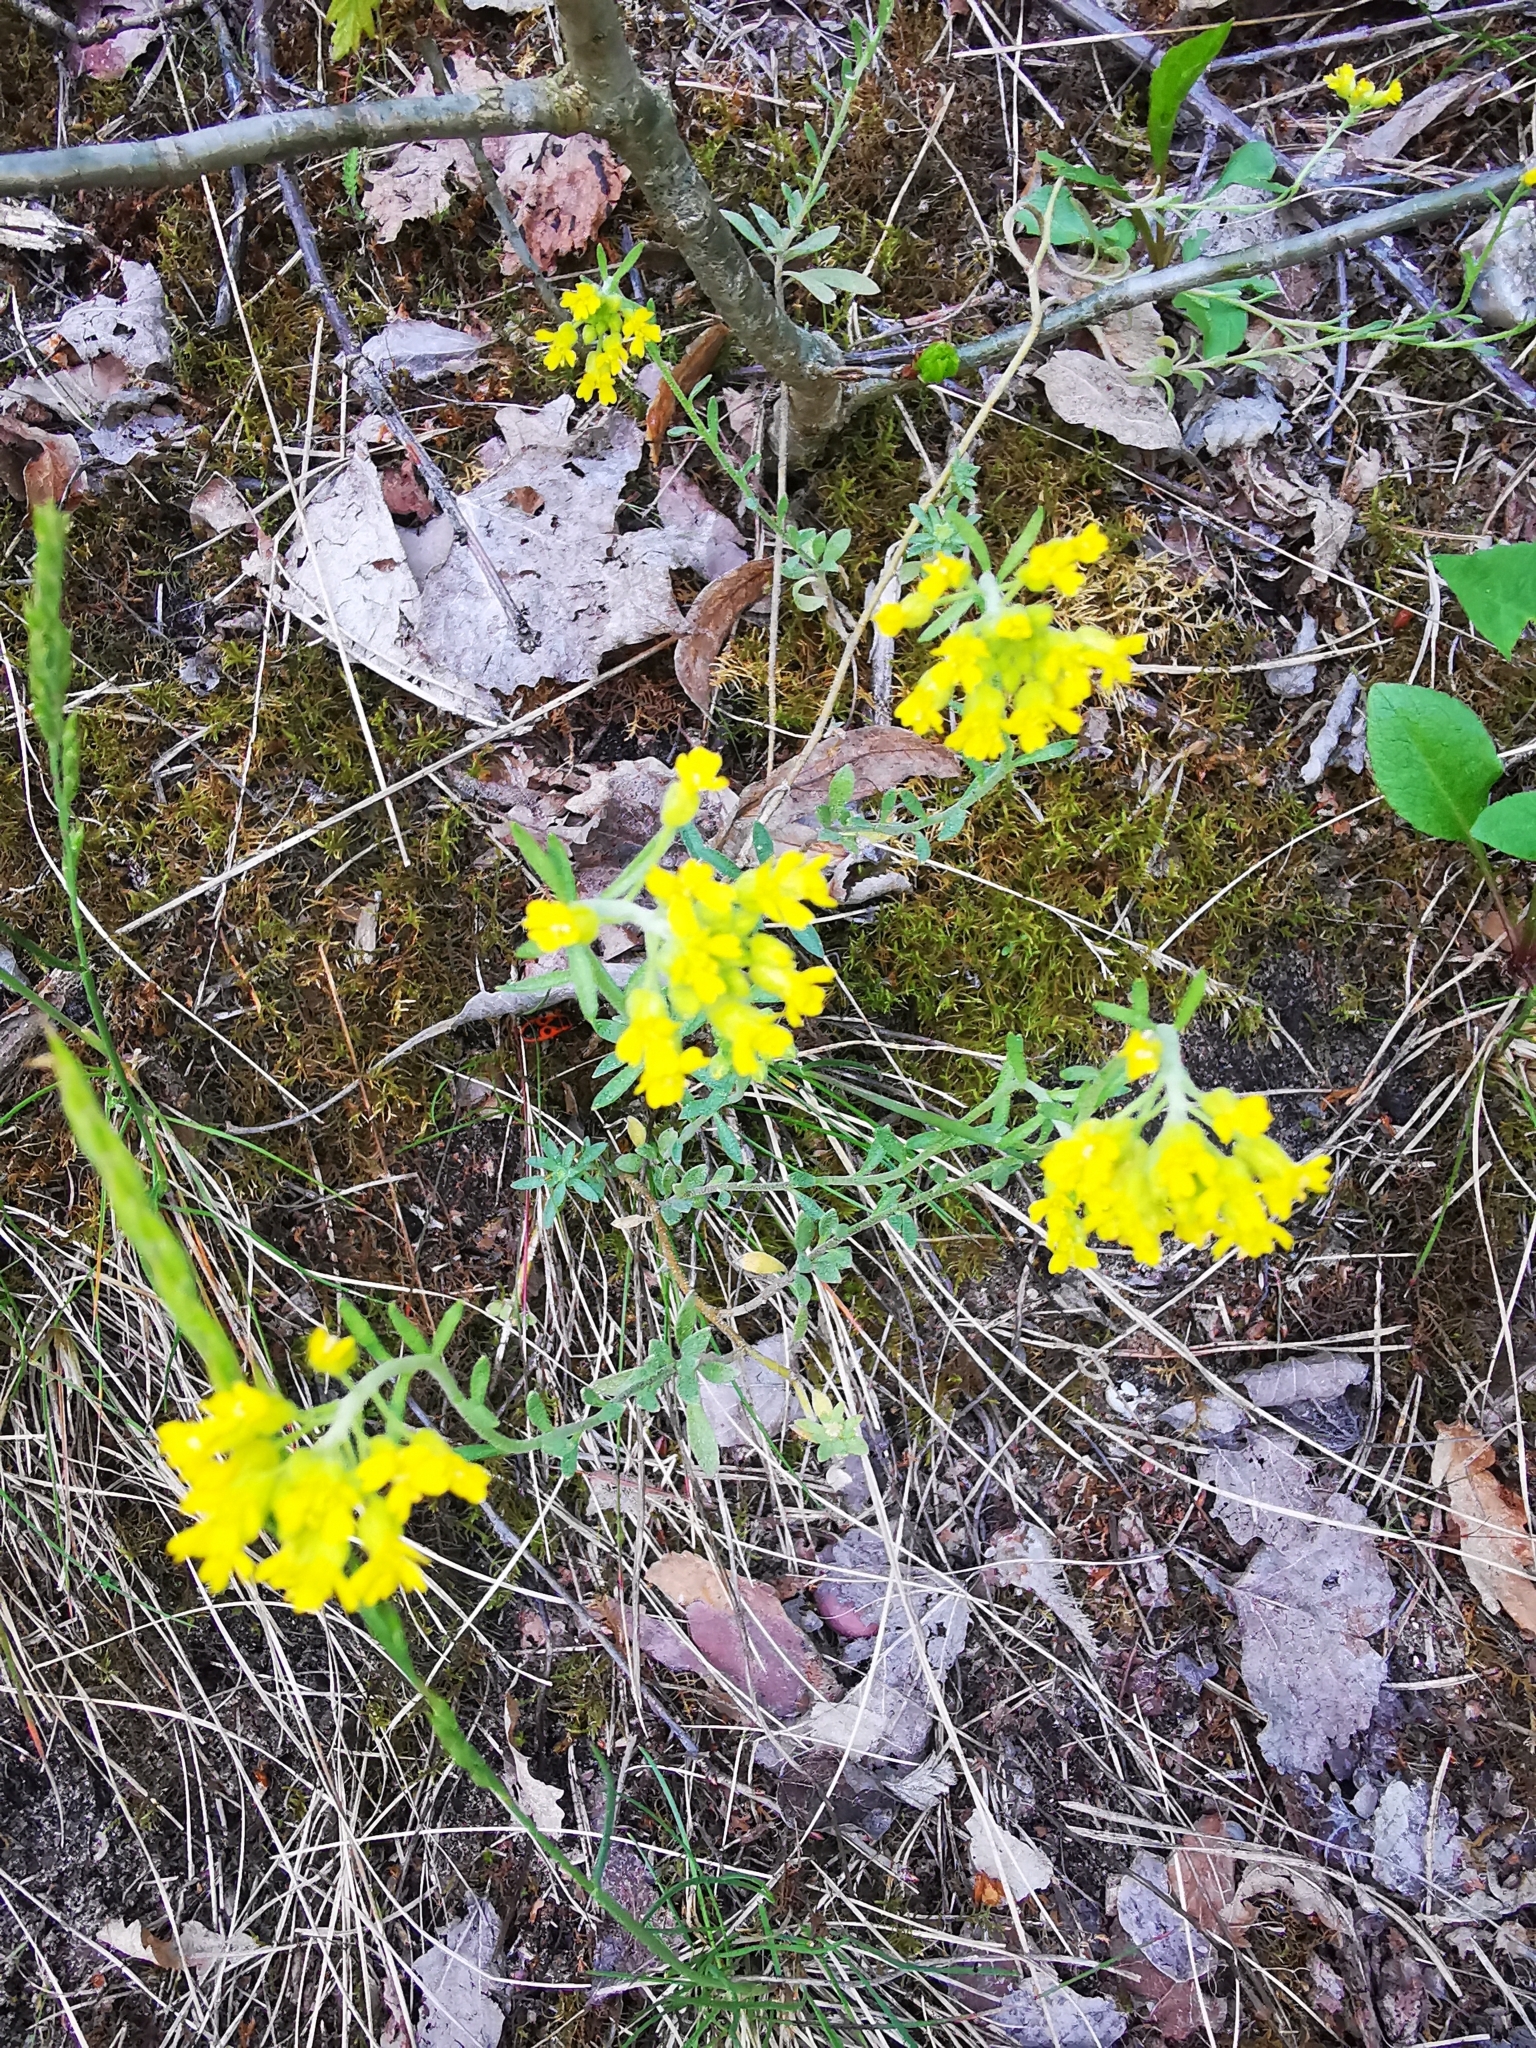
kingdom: Plantae
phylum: Tracheophyta
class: Magnoliopsida
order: Brassicales
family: Brassicaceae
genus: Alyssum
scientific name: Alyssum gmelinii
